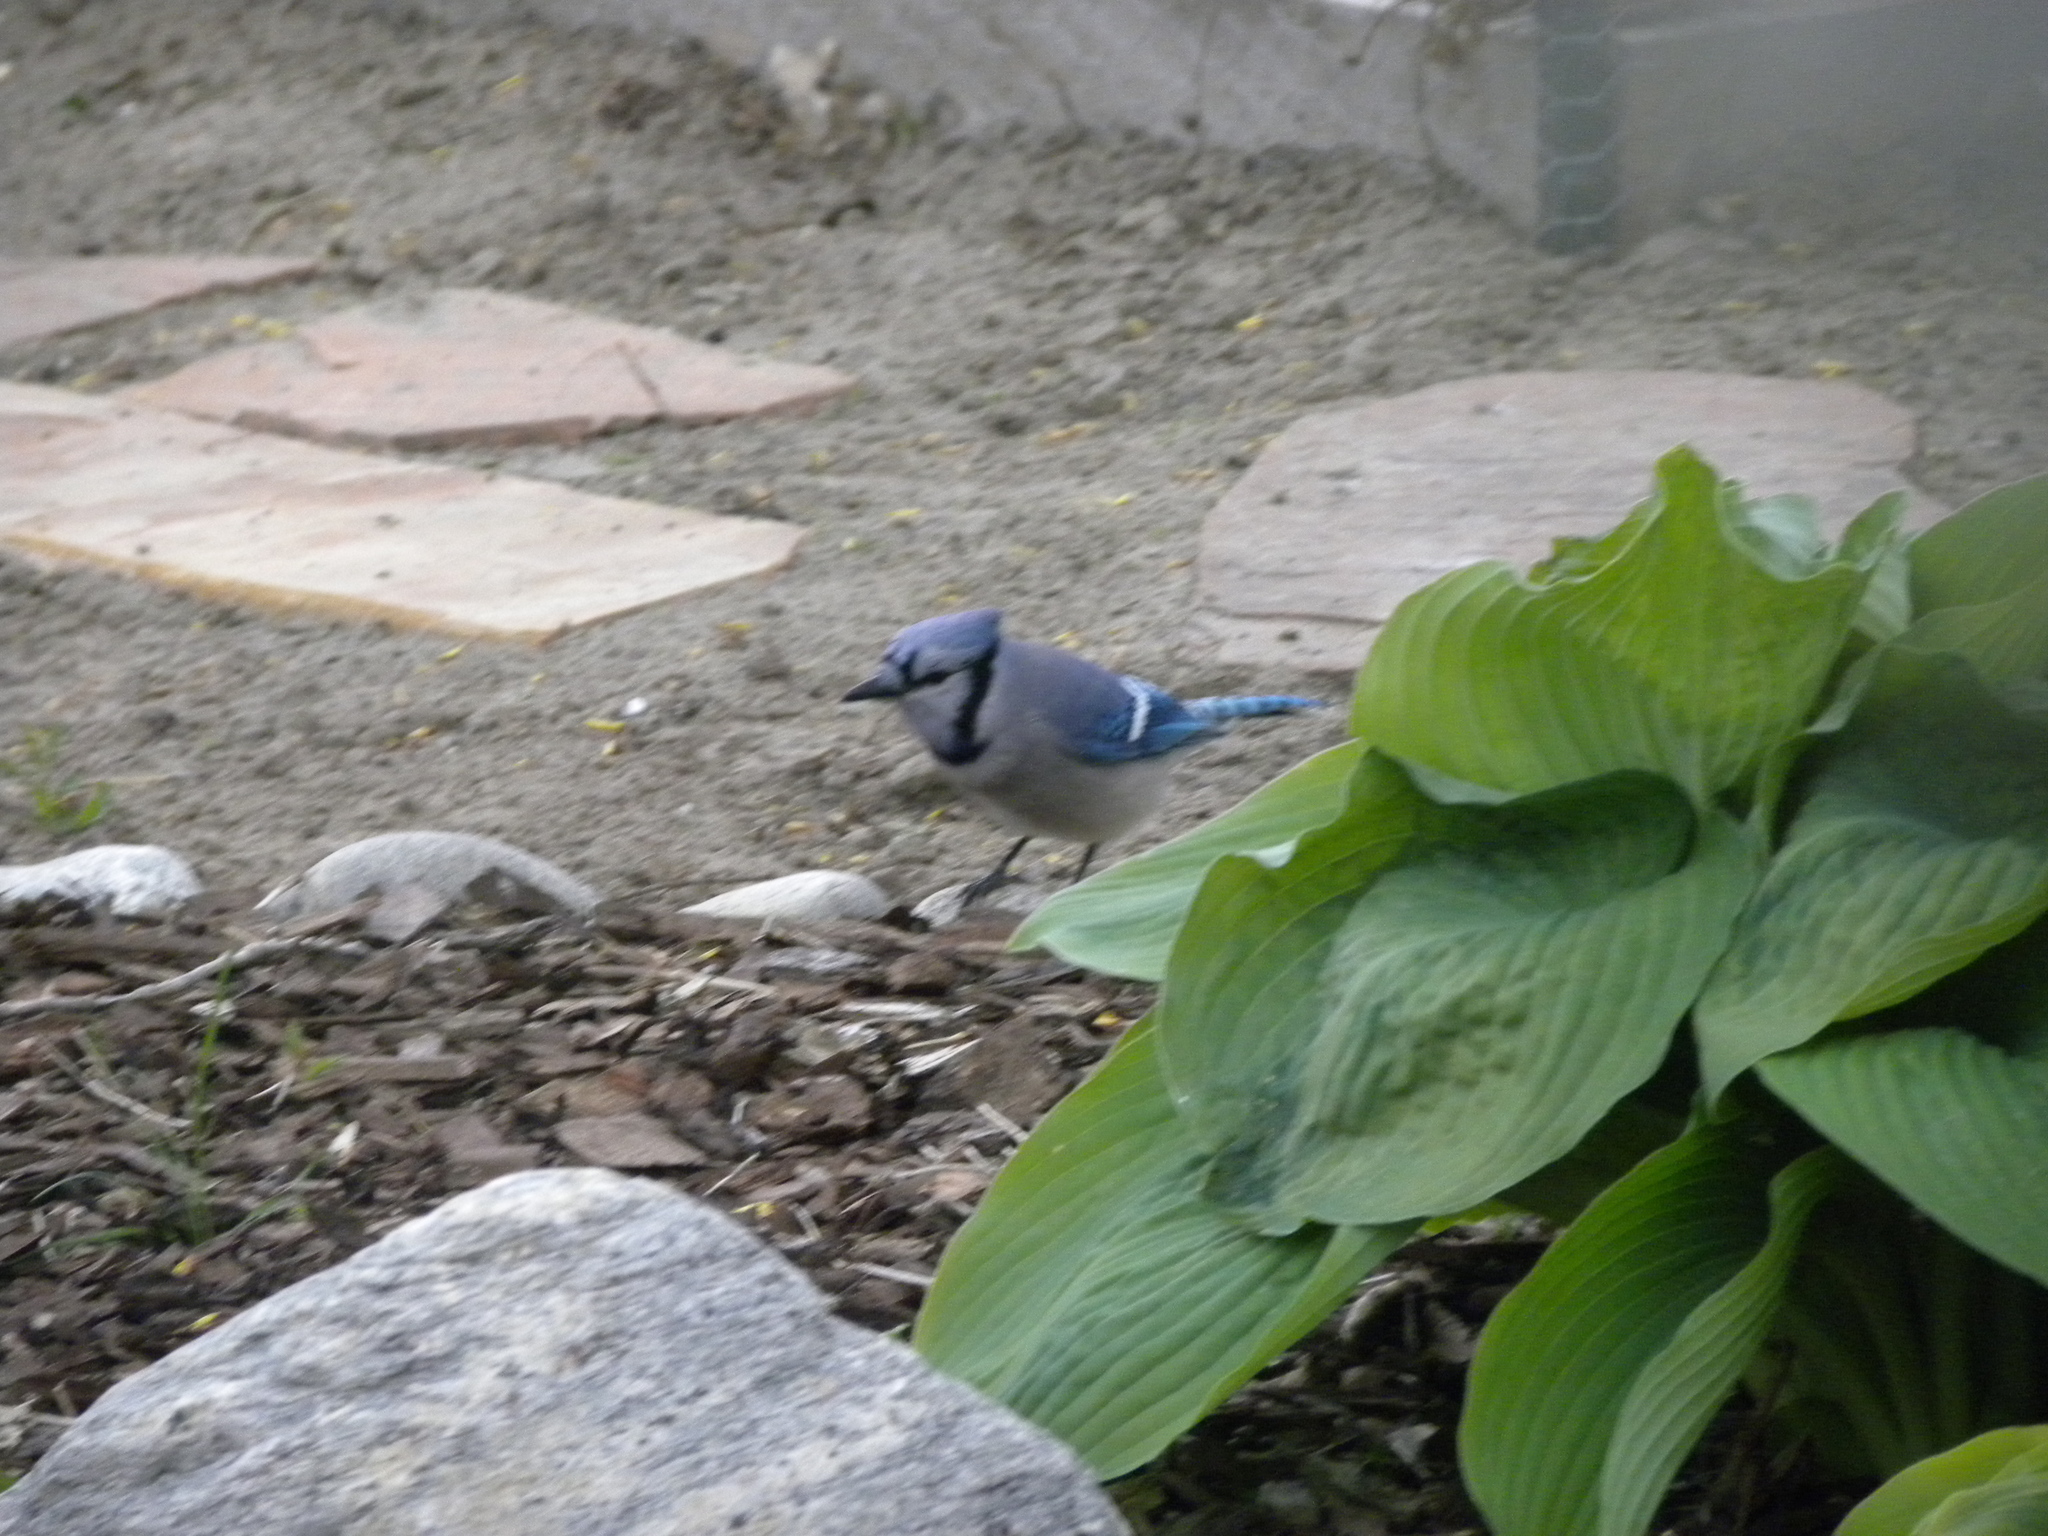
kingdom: Animalia
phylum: Chordata
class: Aves
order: Passeriformes
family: Corvidae
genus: Cyanocitta
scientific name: Cyanocitta cristata
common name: Blue jay
